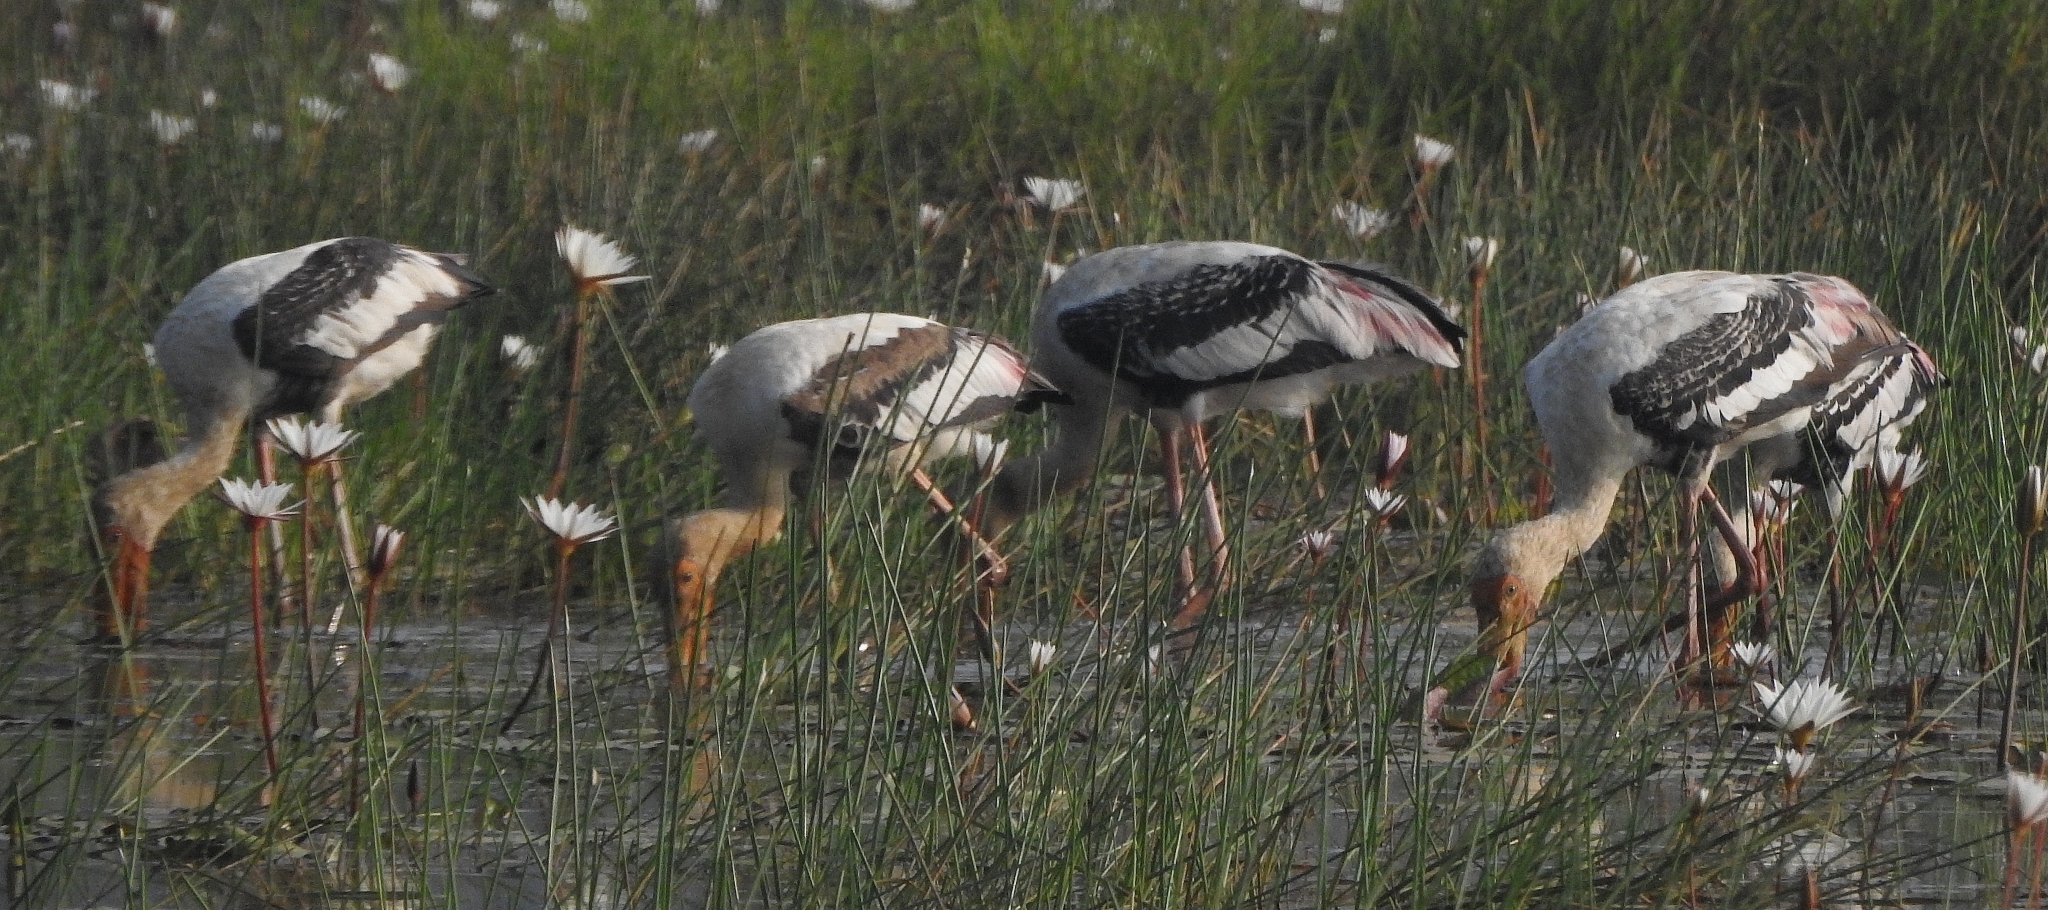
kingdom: Animalia
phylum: Chordata
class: Aves
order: Ciconiiformes
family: Ciconiidae
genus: Mycteria
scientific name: Mycteria leucocephala
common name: Painted stork
